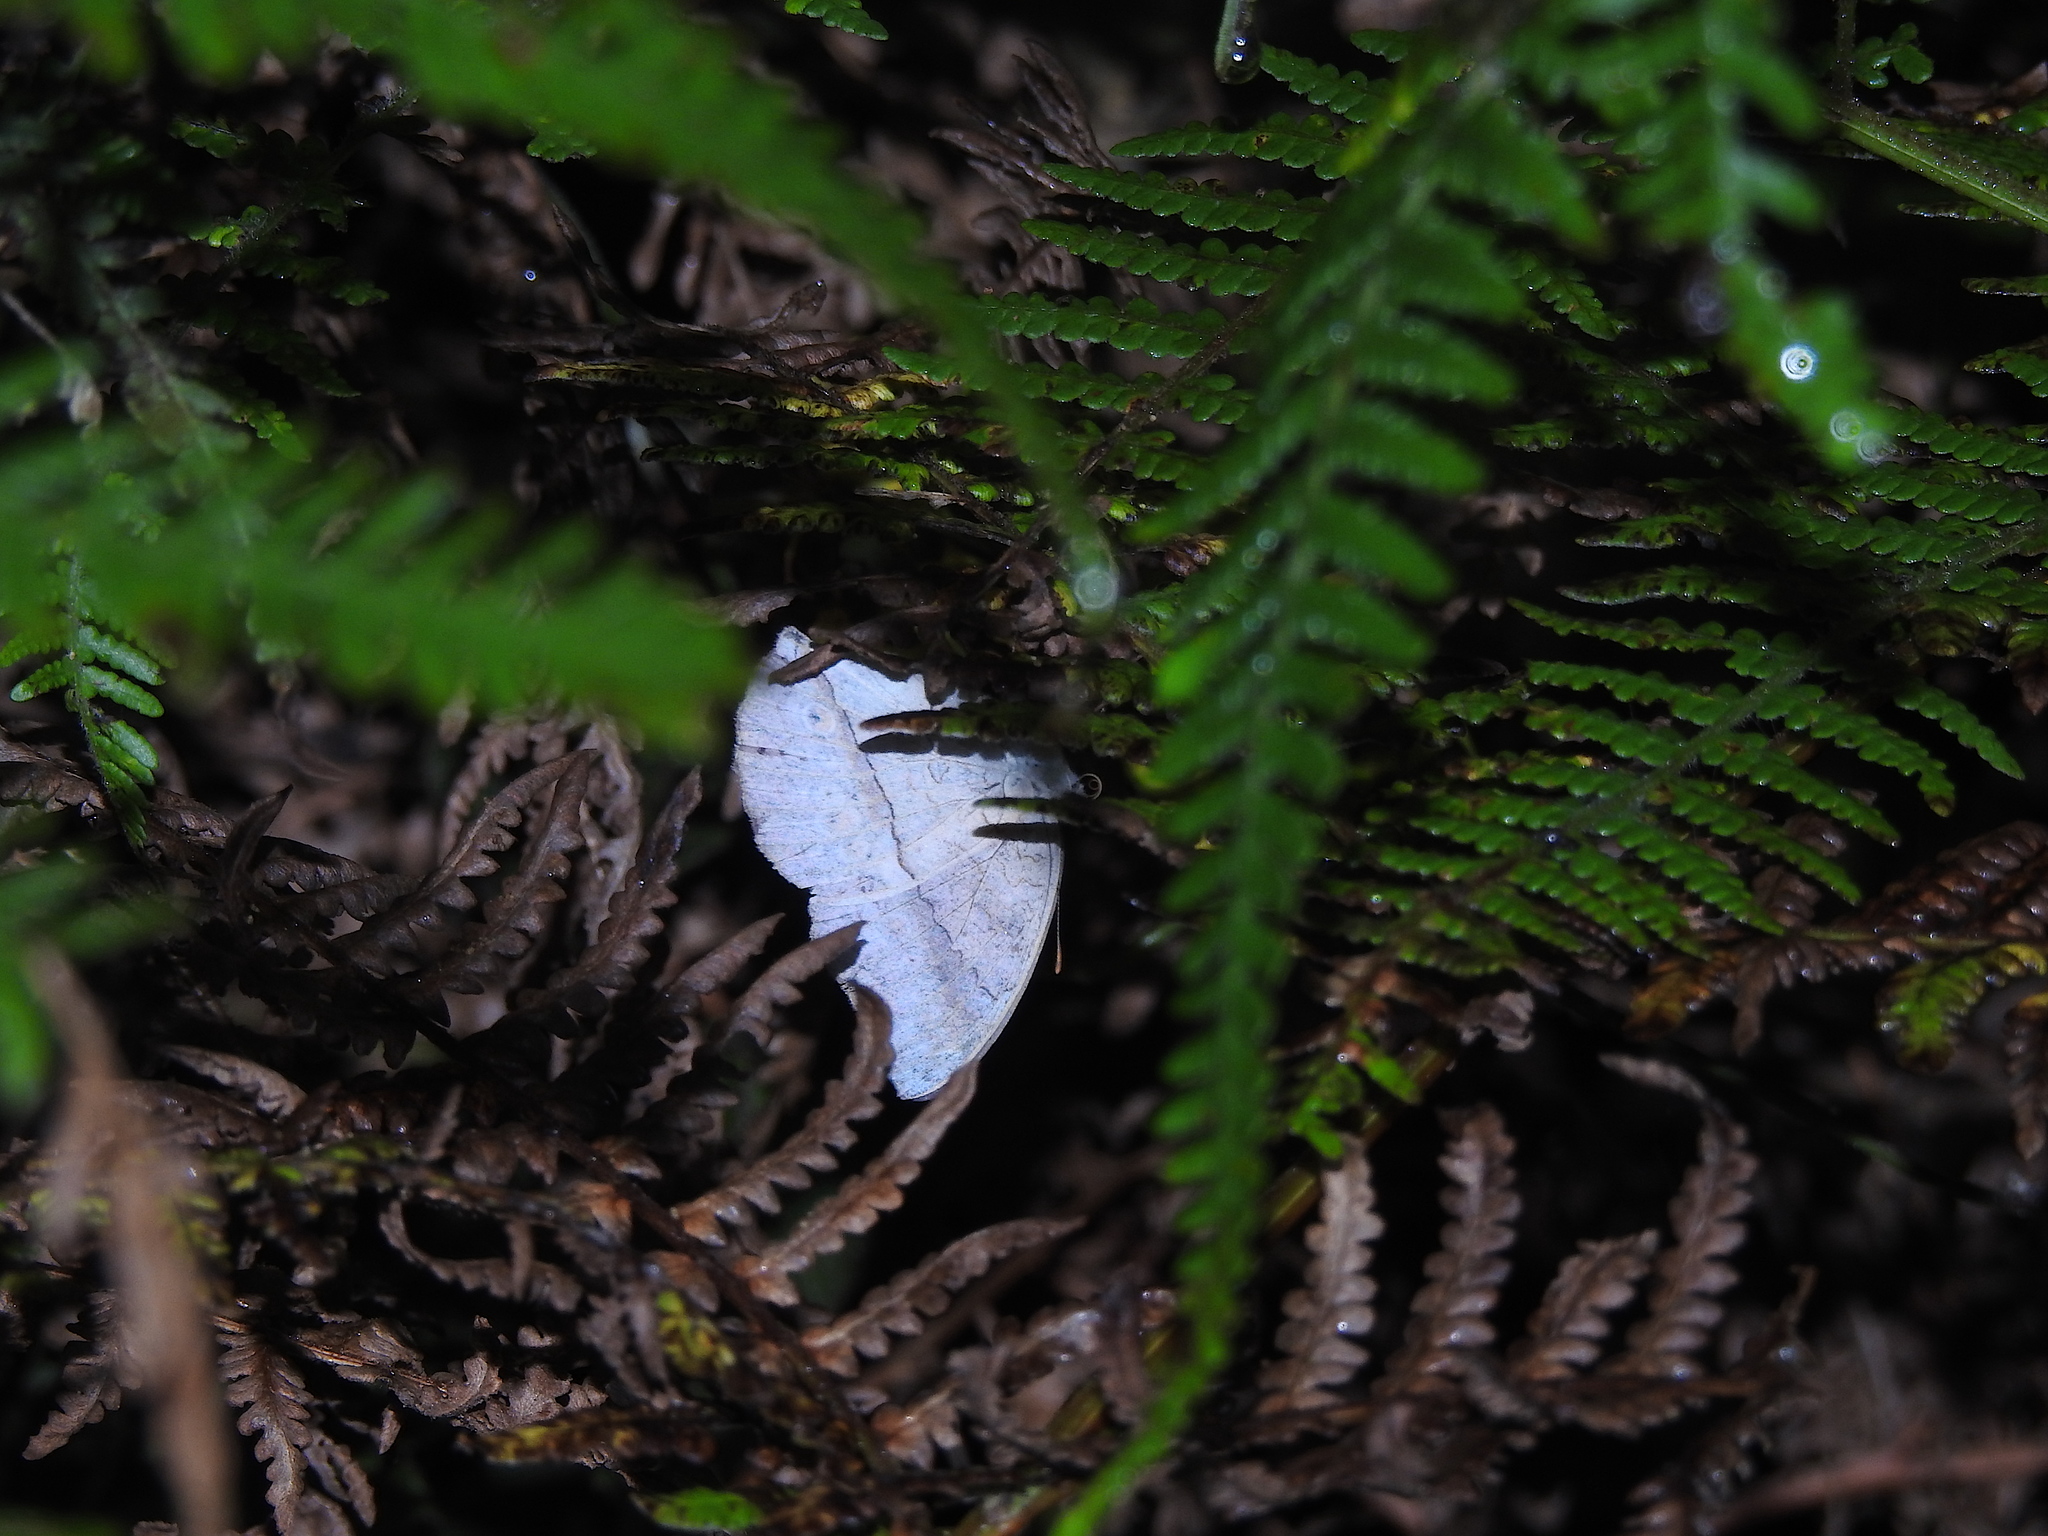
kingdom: Animalia
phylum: Arthropoda
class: Insecta
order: Lepidoptera
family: Nymphalidae
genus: Junonia
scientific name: Junonia atlites
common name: Grey pansy
